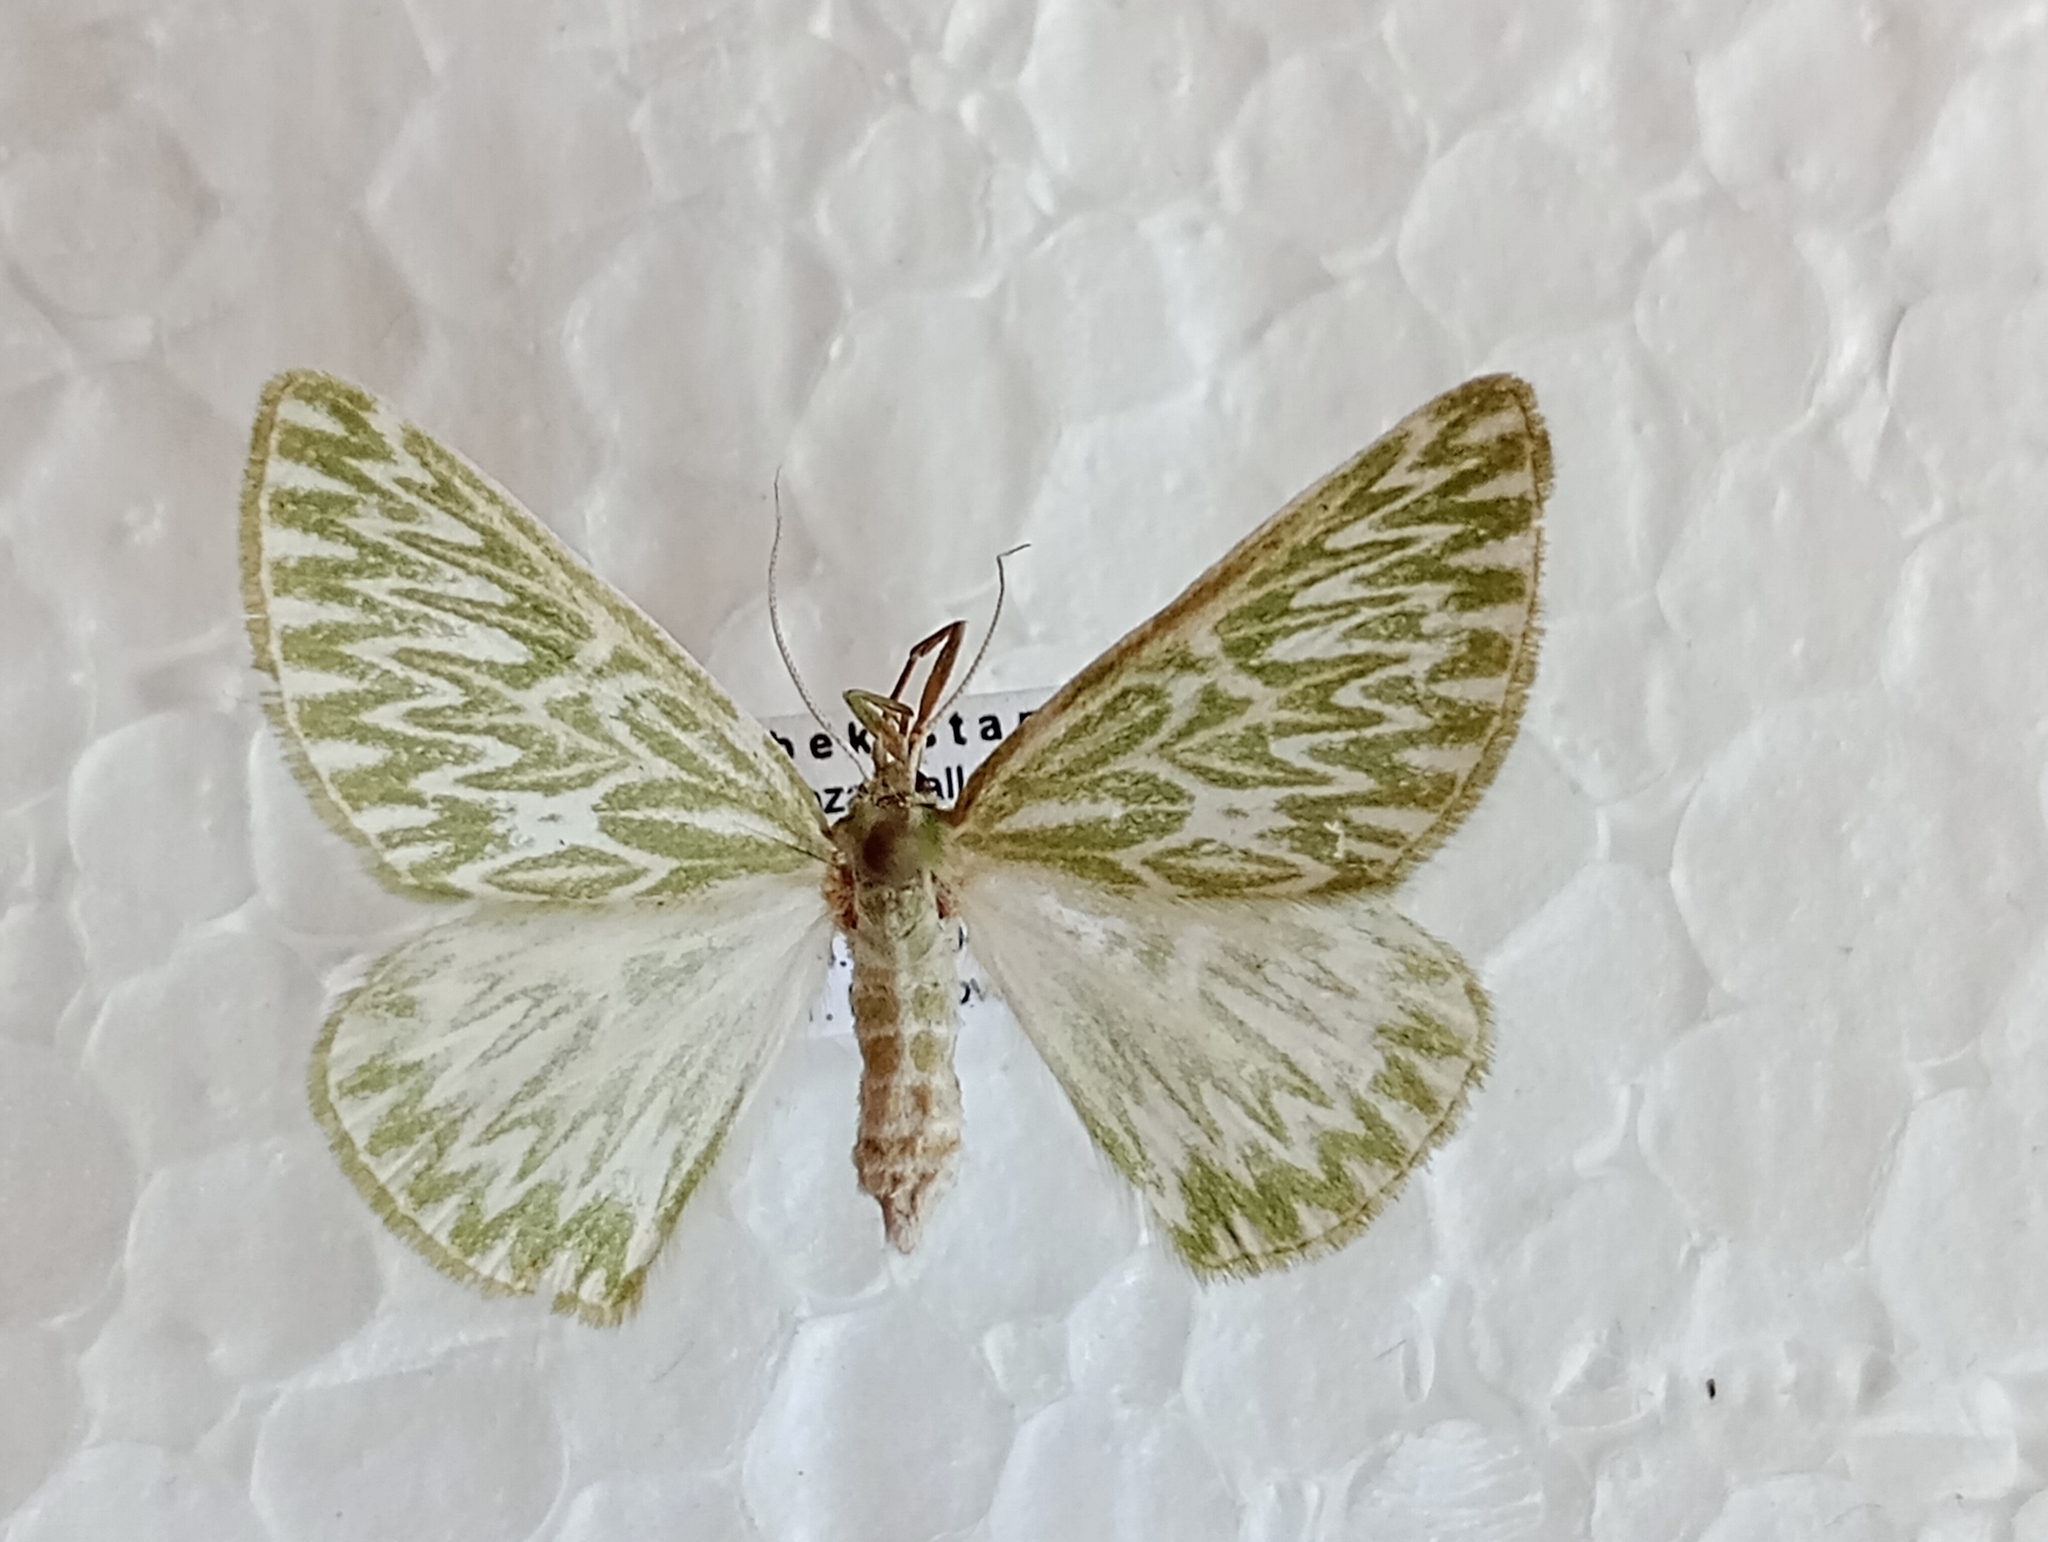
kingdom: Animalia
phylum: Arthropoda
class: Insecta
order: Lepidoptera
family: Geometridae
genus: Thetidia
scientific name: Thetidia fulminaria
